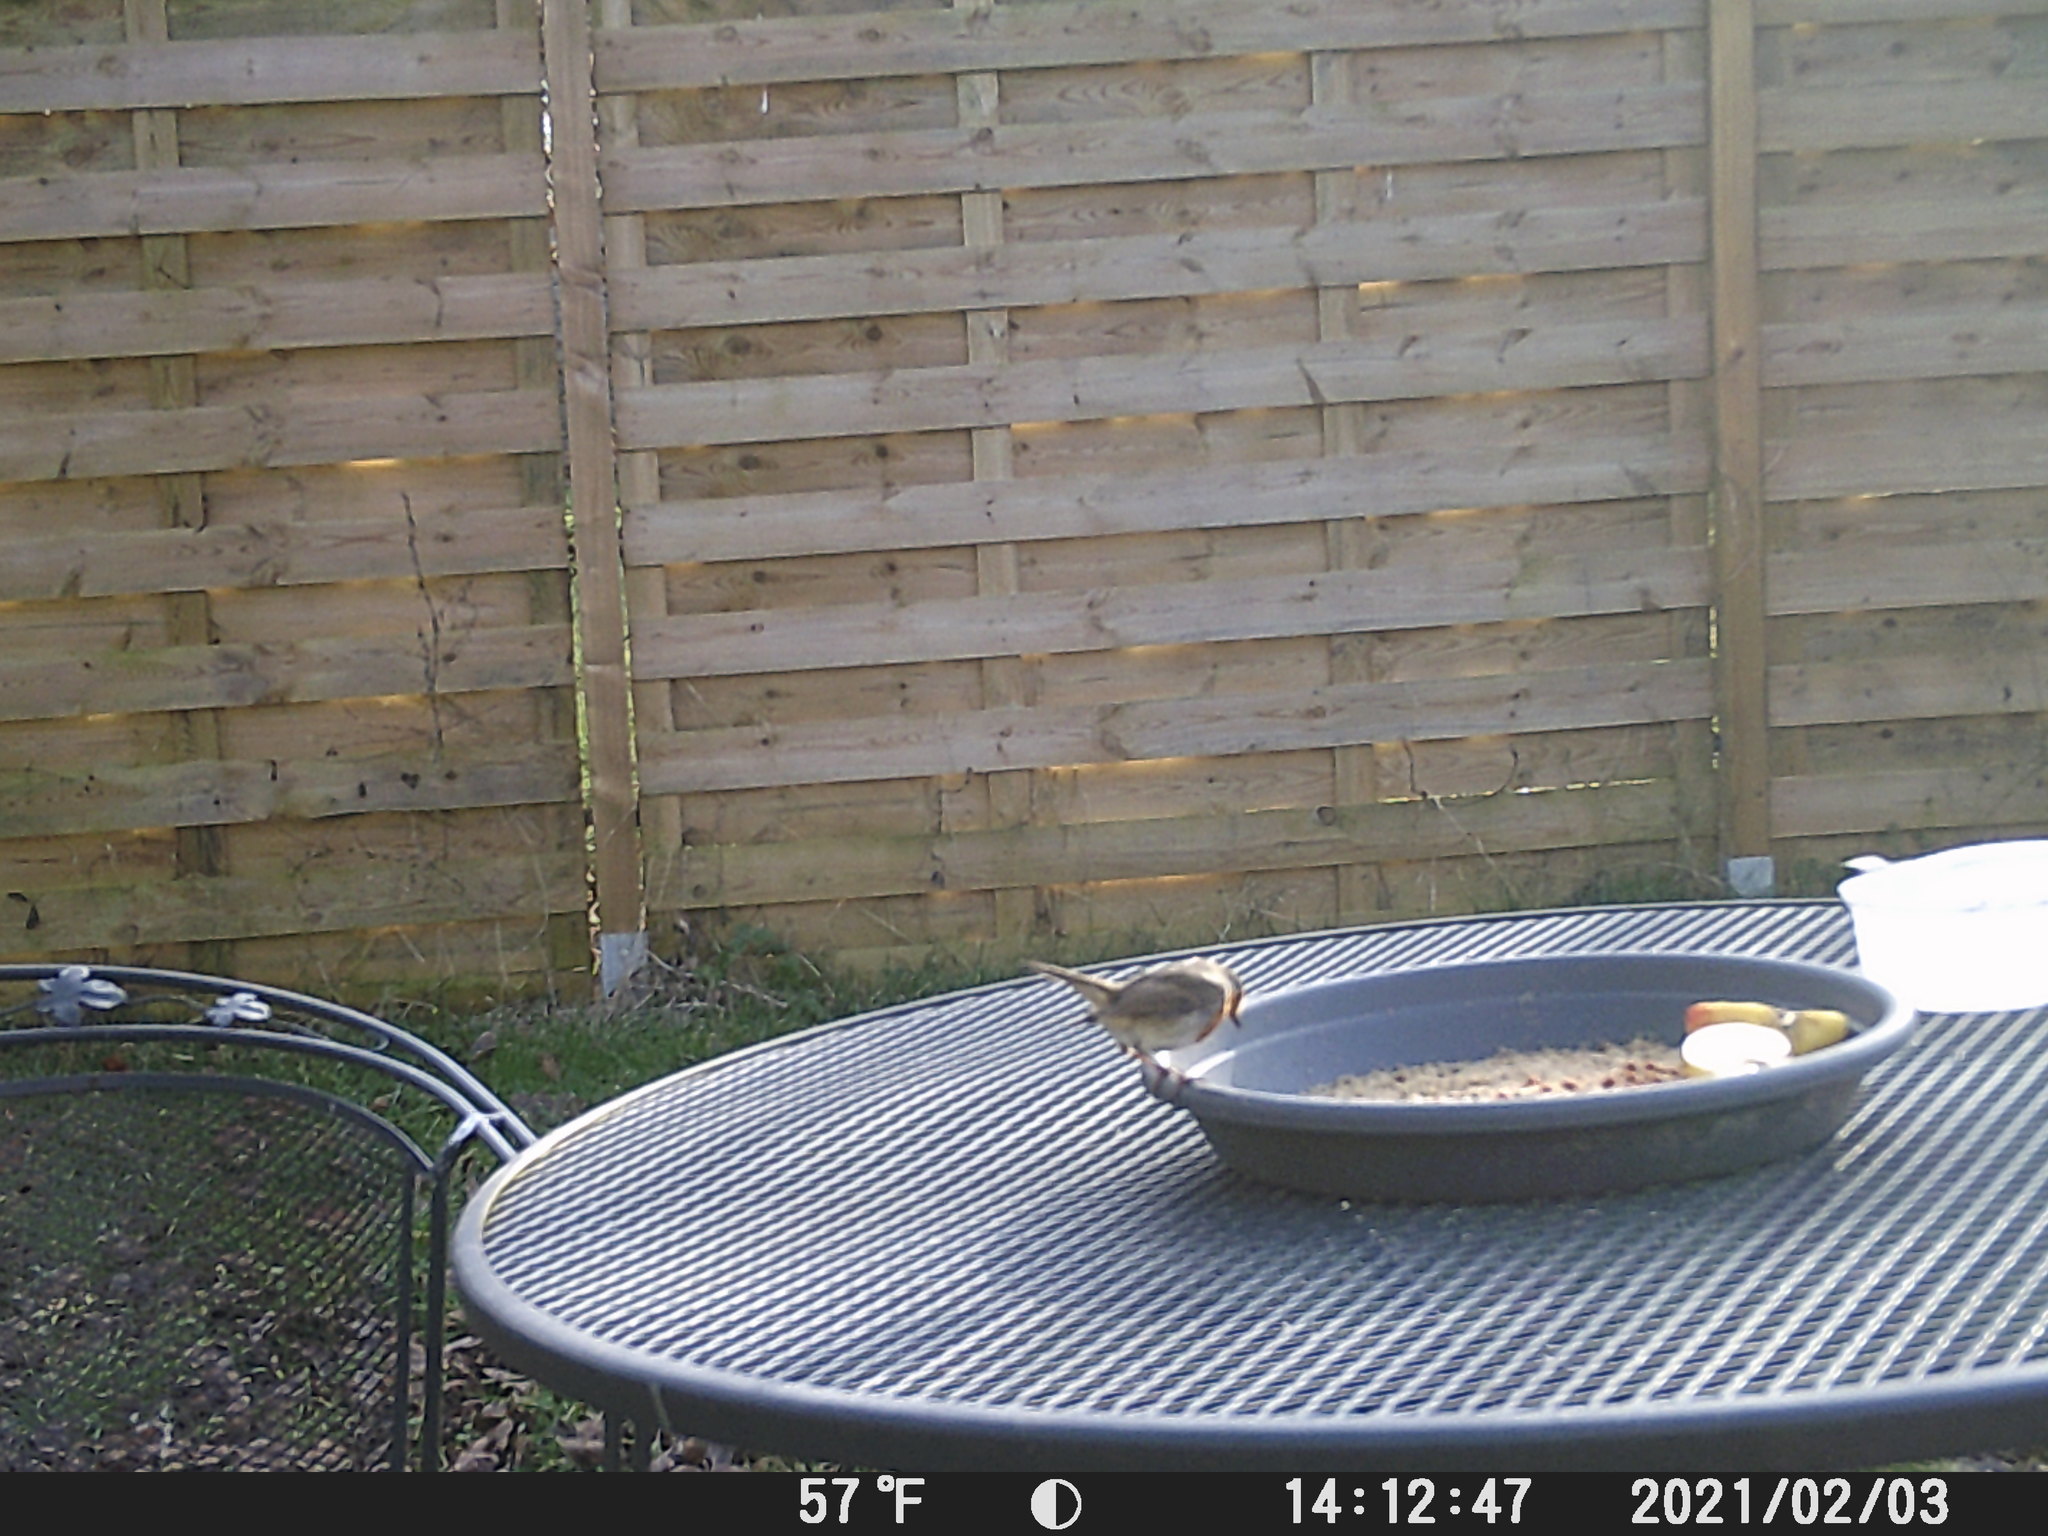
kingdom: Animalia
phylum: Chordata
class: Aves
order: Passeriformes
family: Muscicapidae
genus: Erithacus
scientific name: Erithacus rubecula
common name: European robin
